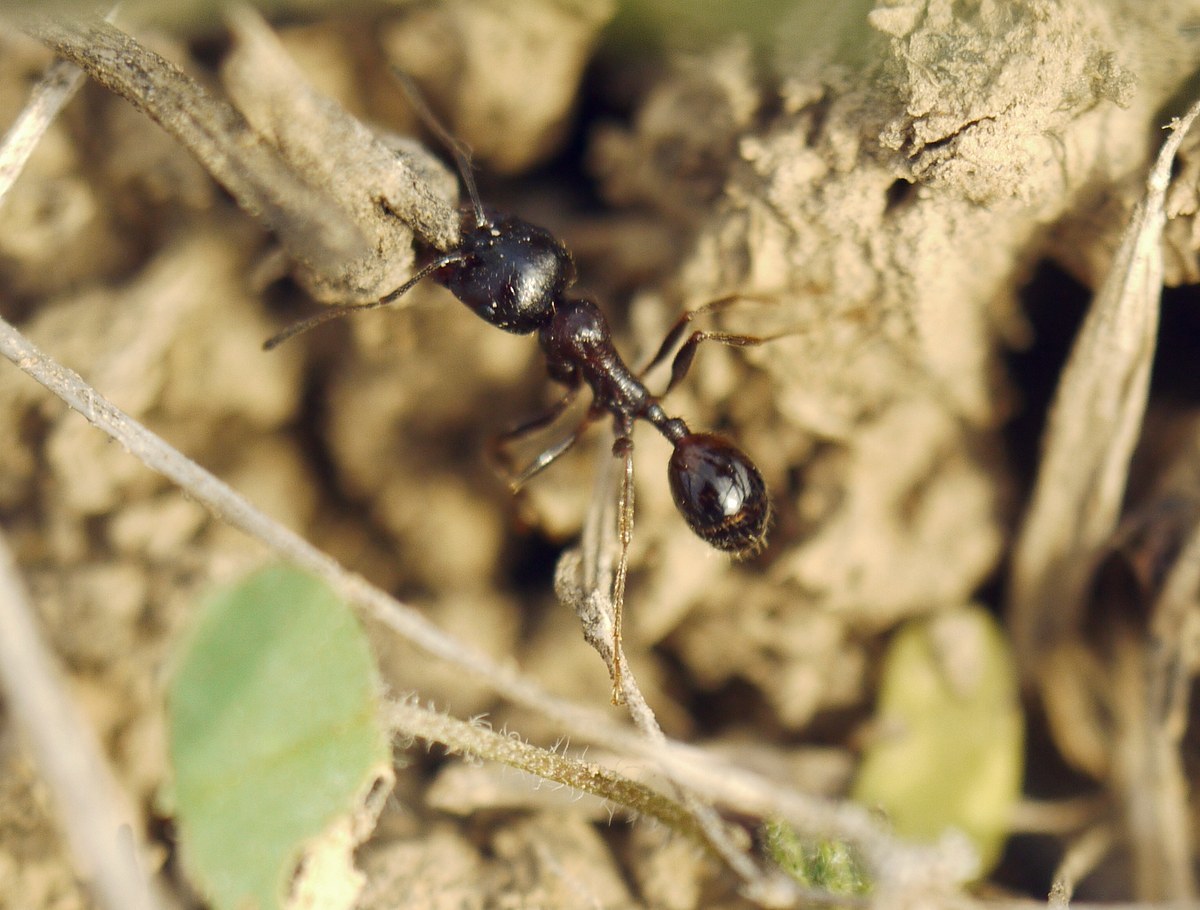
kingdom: Animalia
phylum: Arthropoda
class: Insecta
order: Hymenoptera
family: Formicidae
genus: Messor
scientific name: Messor structor
